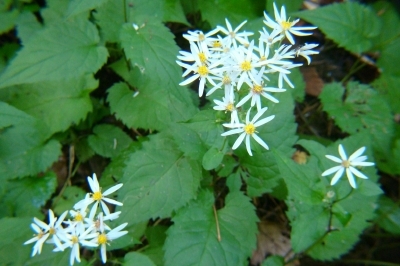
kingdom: Plantae
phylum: Tracheophyta
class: Magnoliopsida
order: Asterales
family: Asteraceae
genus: Eurybia
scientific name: Eurybia divaricata
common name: White wood aster
